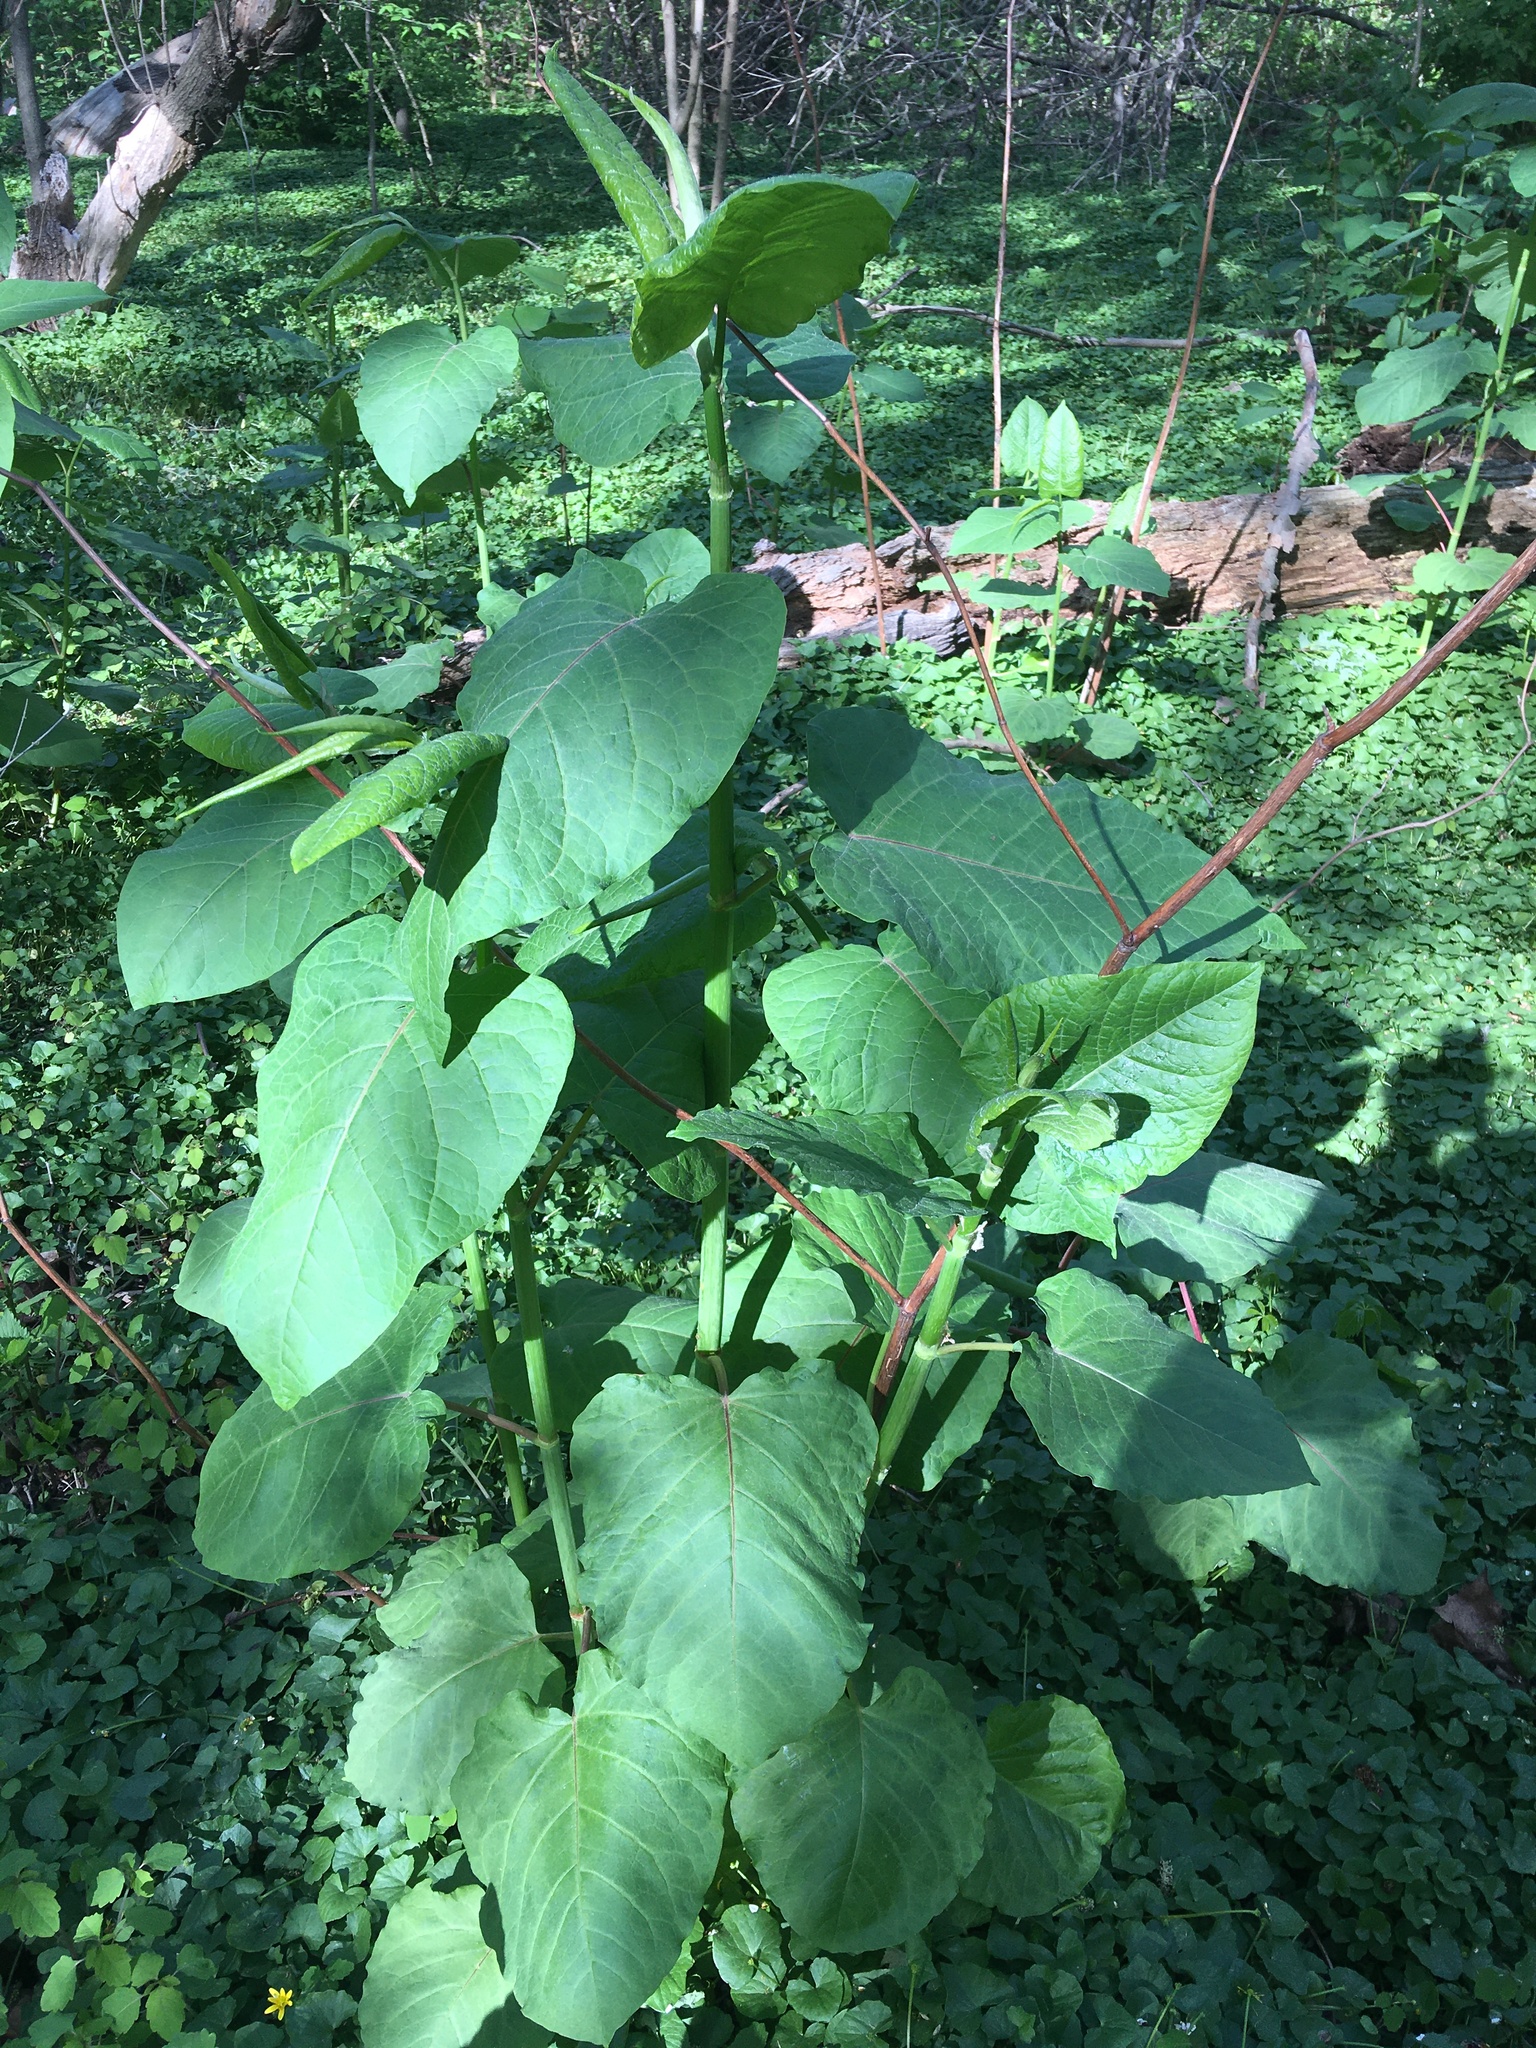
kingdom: Plantae
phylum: Tracheophyta
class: Magnoliopsida
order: Caryophyllales
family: Polygonaceae
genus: Reynoutria
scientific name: Reynoutria sachalinensis
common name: Giant knotweed
